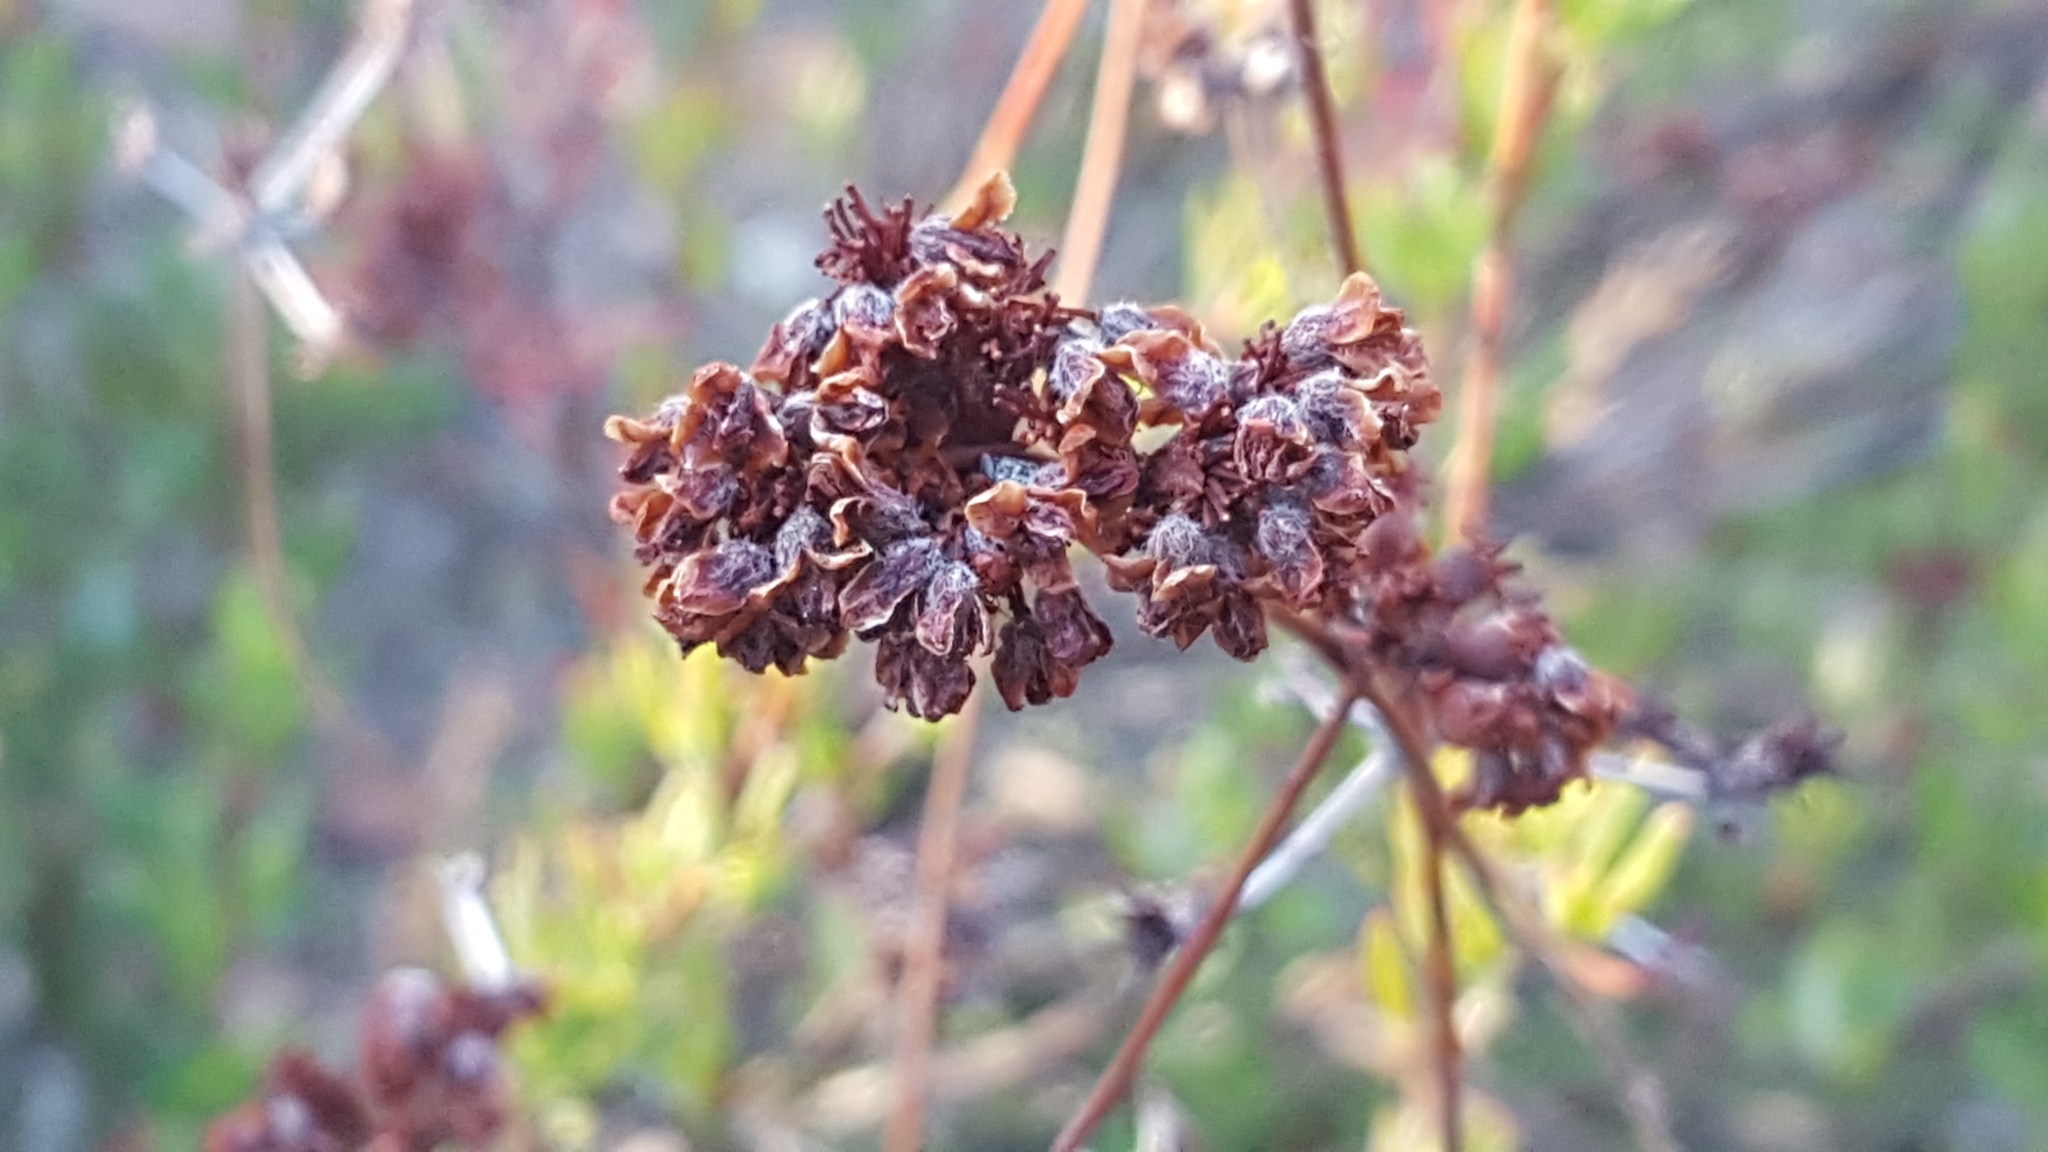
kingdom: Plantae
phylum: Tracheophyta
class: Magnoliopsida
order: Caryophyllales
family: Polygonaceae
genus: Eriogonum
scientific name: Eriogonum fasciculatum
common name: California wild buckwheat
